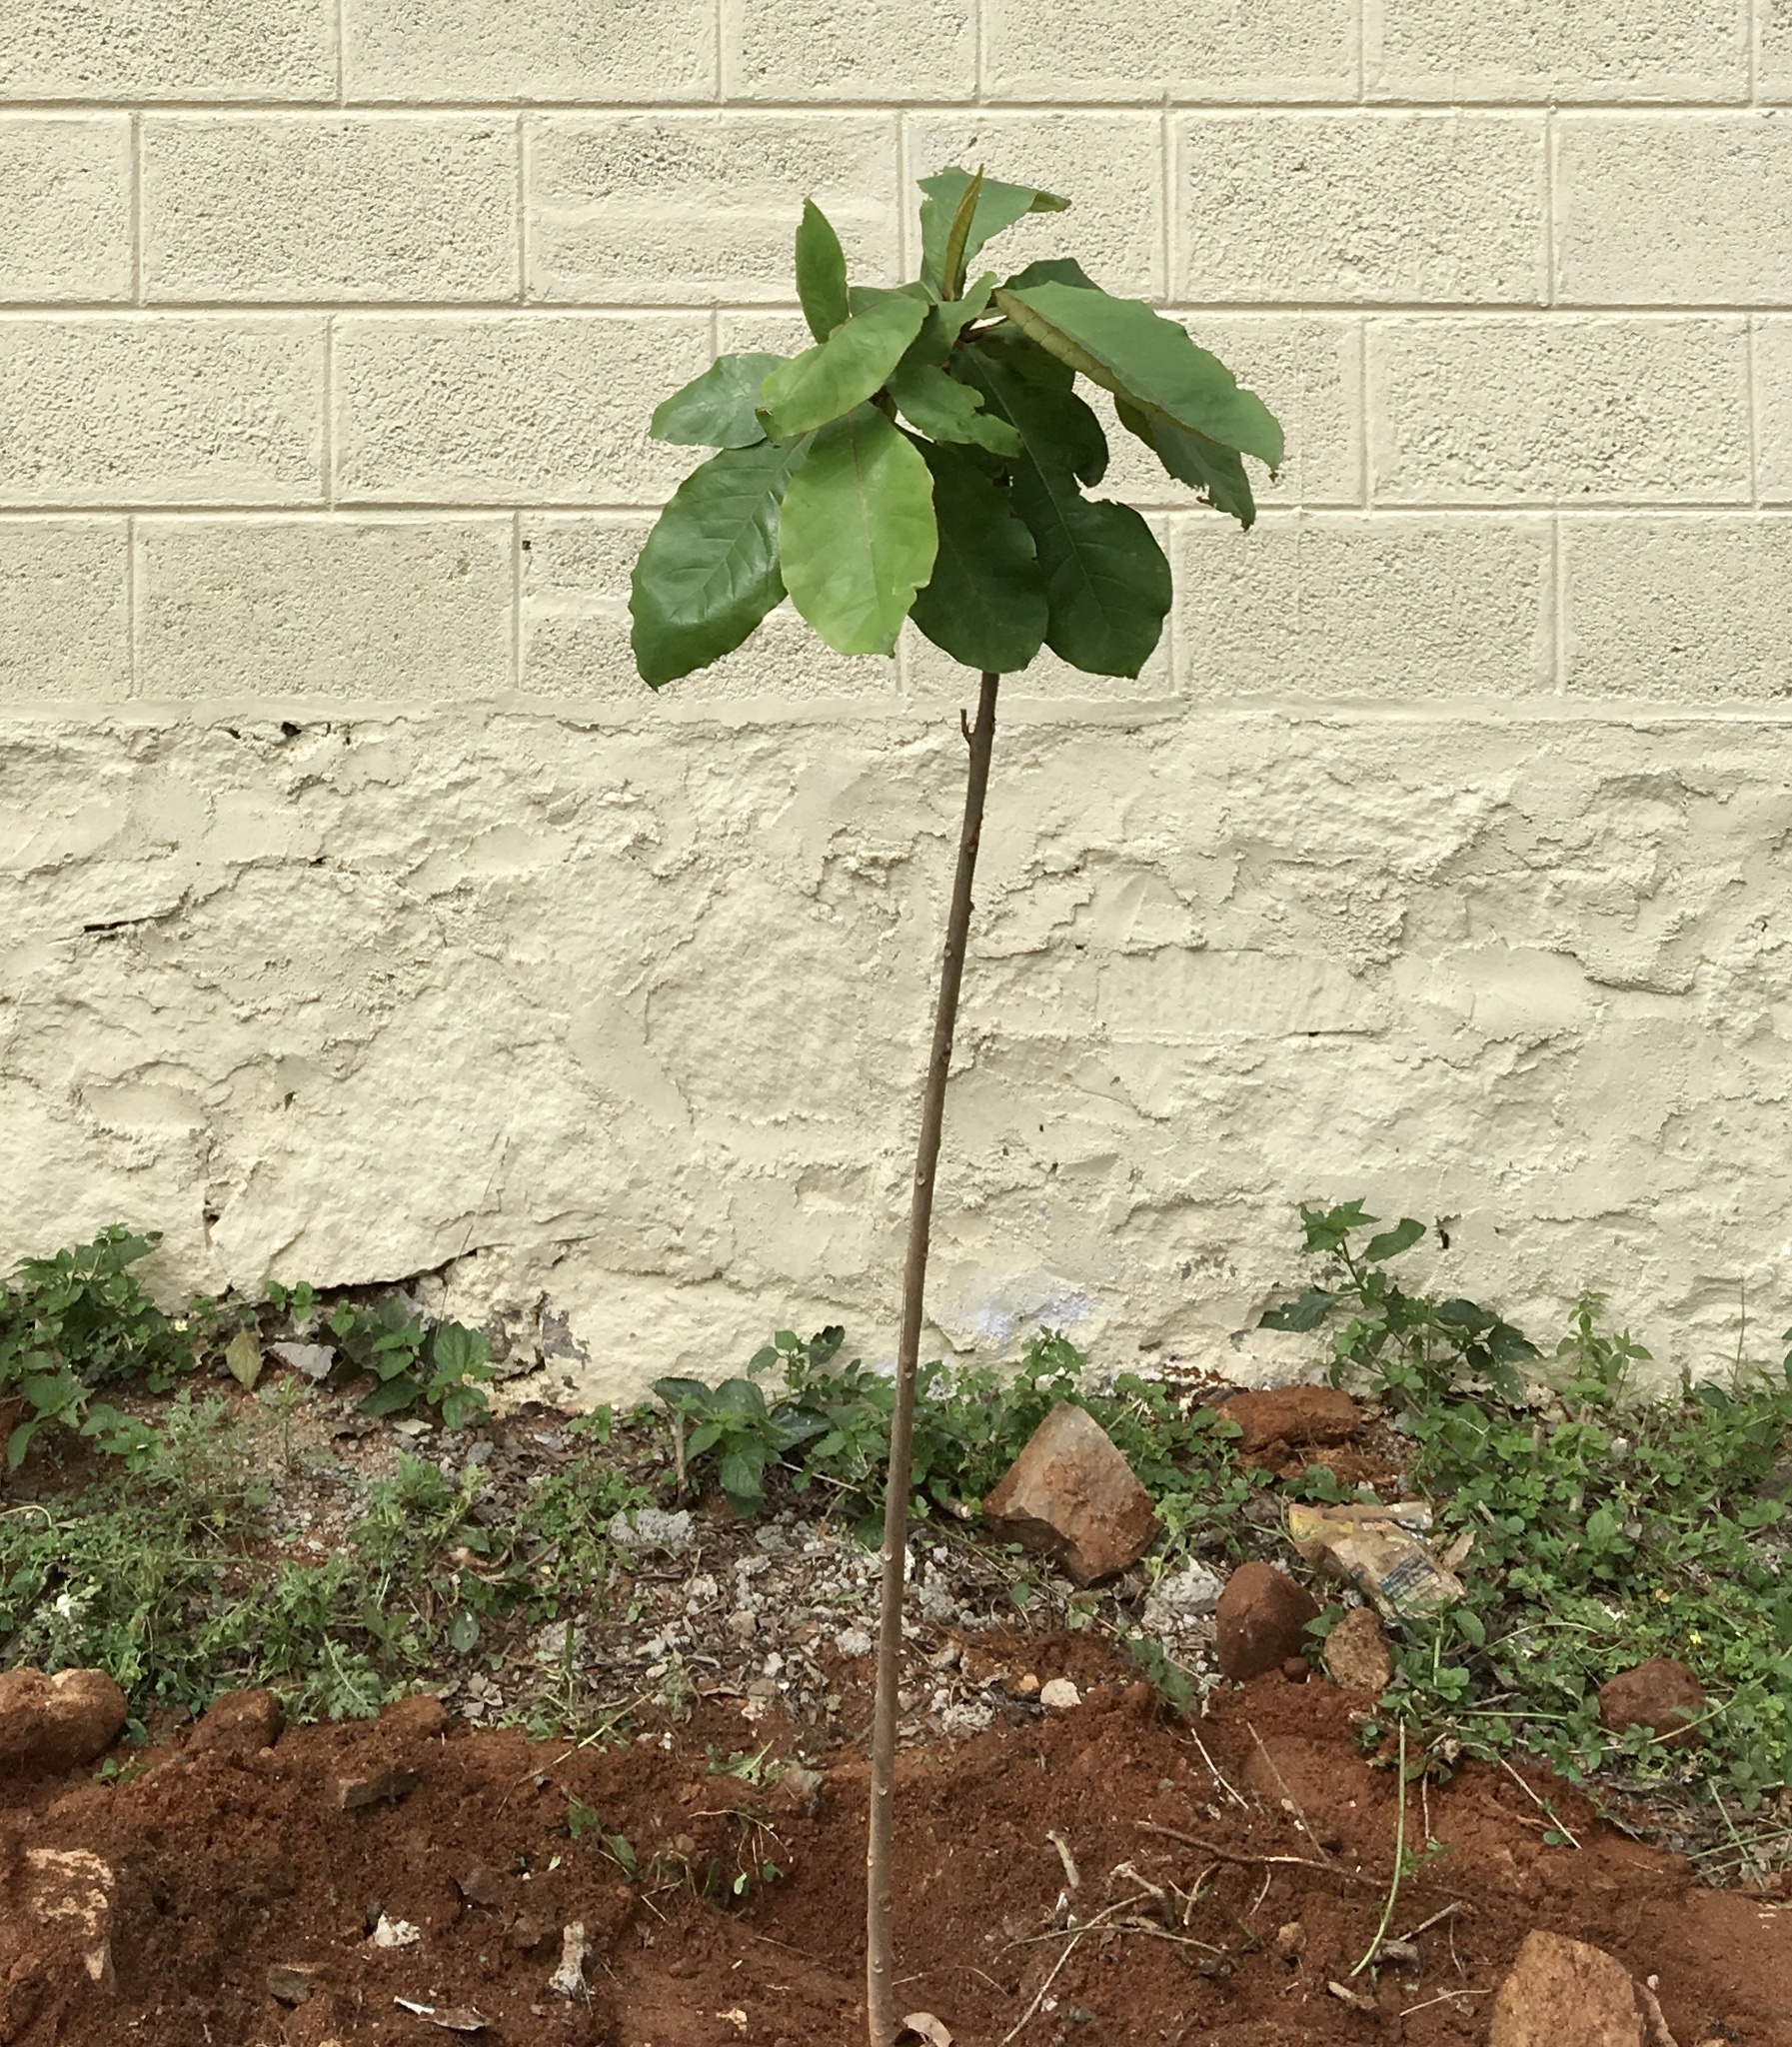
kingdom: Plantae
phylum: Tracheophyta
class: Magnoliopsida
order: Sapindales
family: Rutaceae
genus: Citrus
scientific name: Citrus maxima
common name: Pomelo
